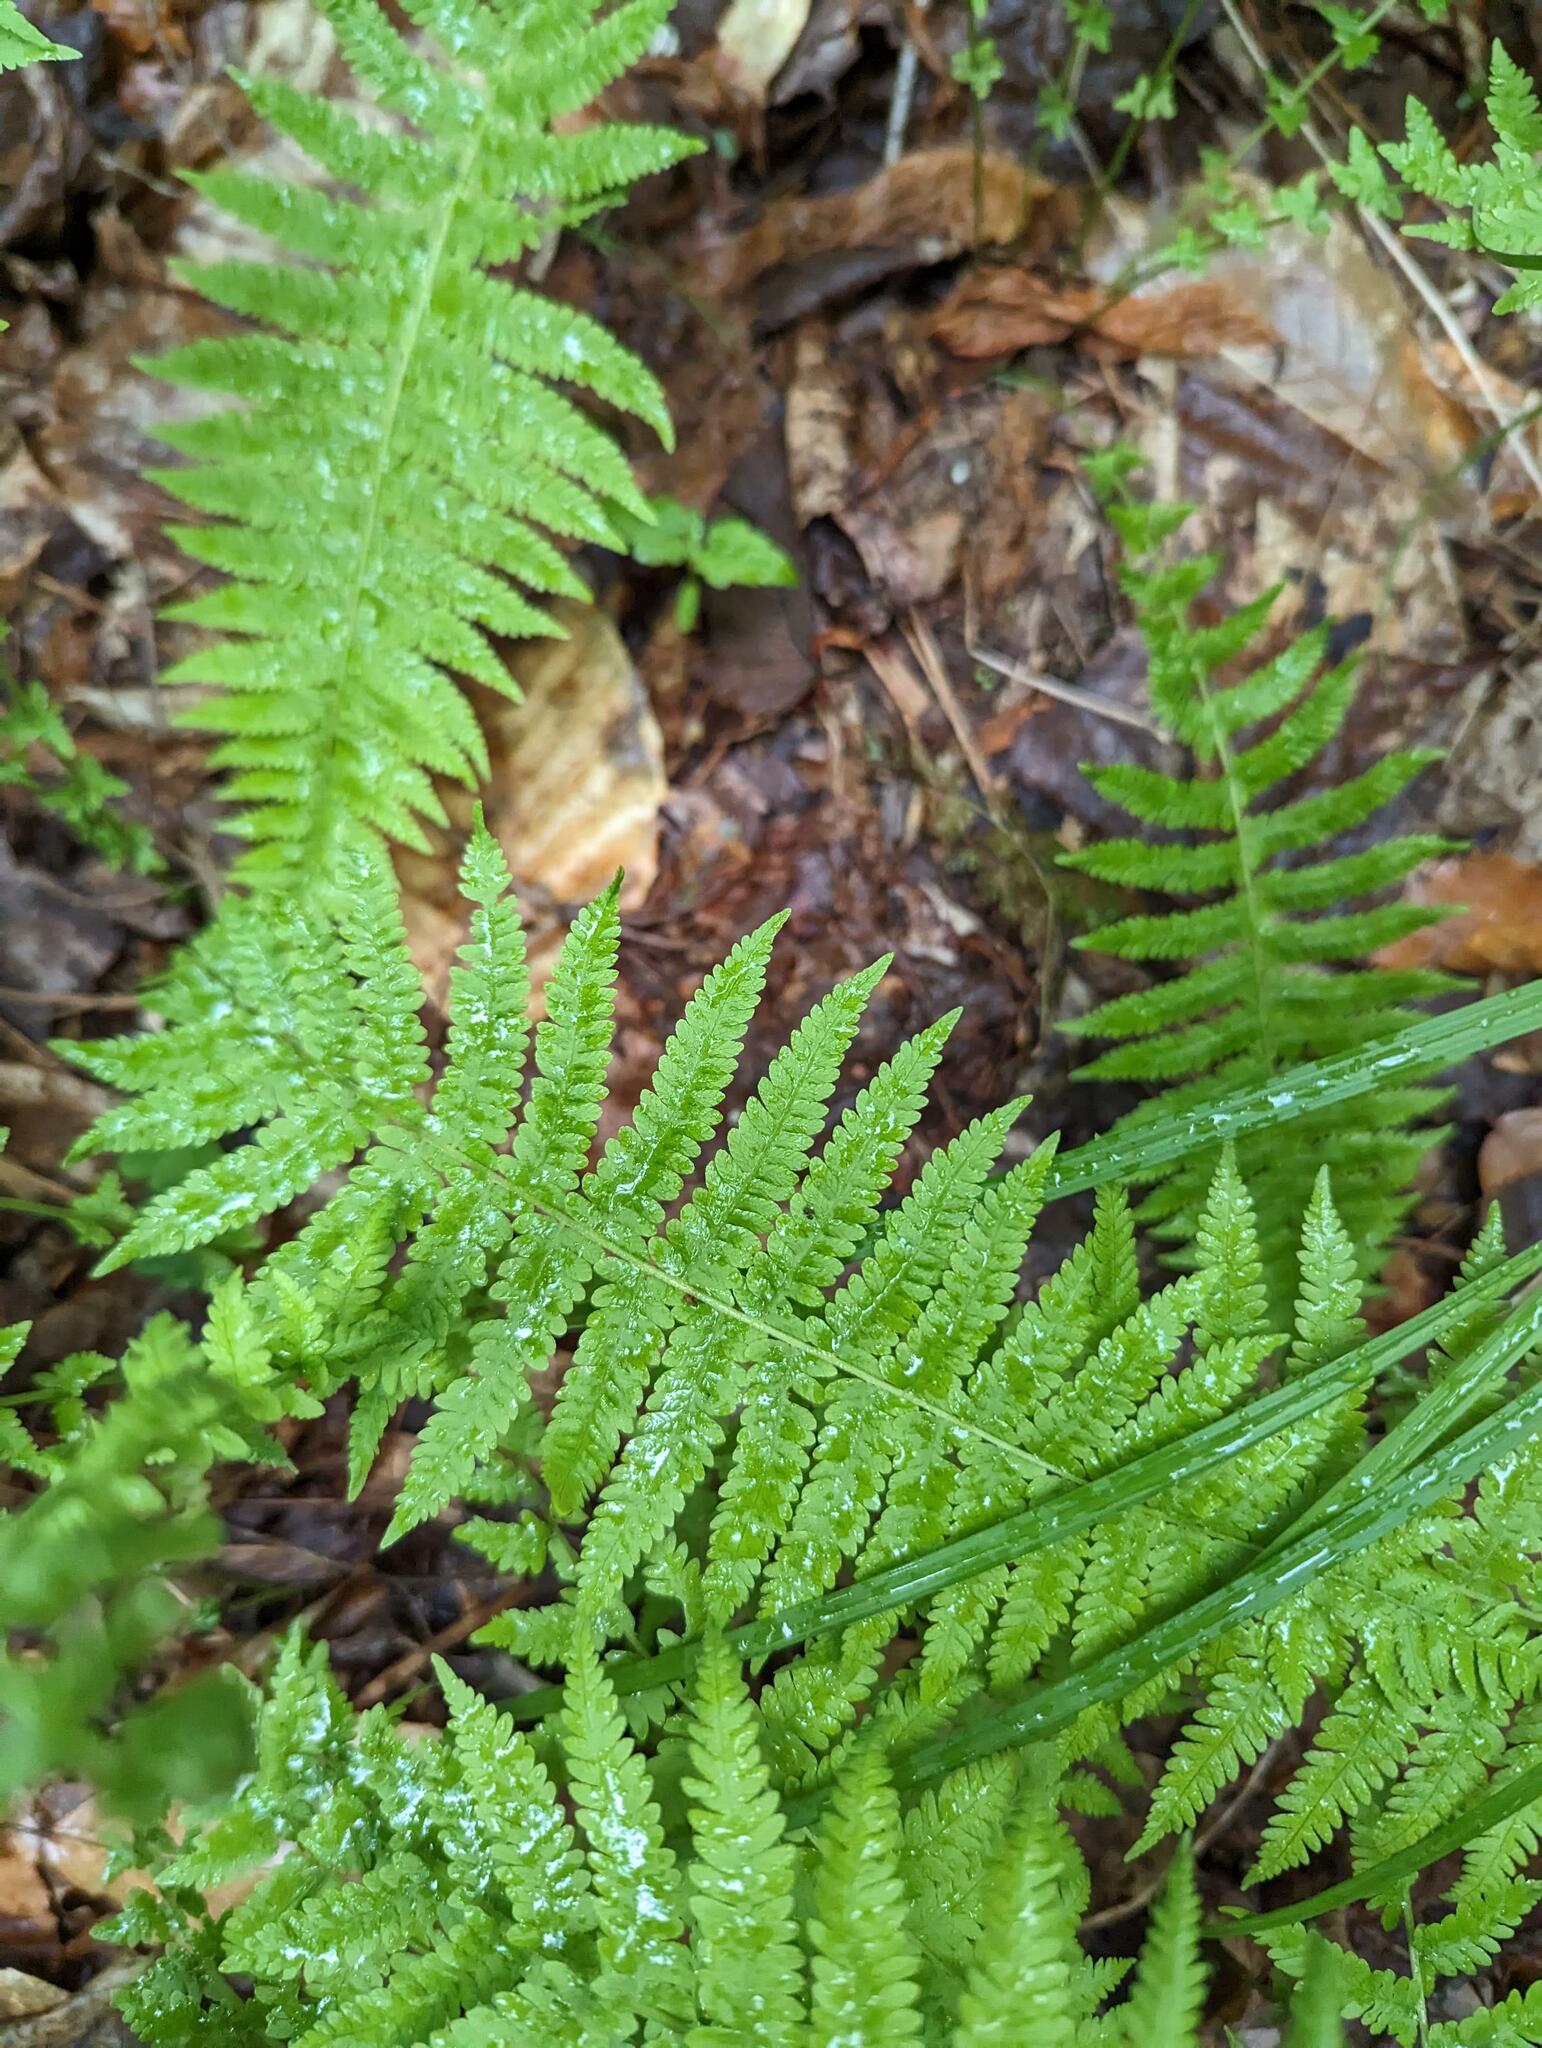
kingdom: Plantae
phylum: Tracheophyta
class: Polypodiopsida
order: Polypodiales
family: Thelypteridaceae
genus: Amauropelta
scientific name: Amauropelta noveboracensis
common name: New york fern
